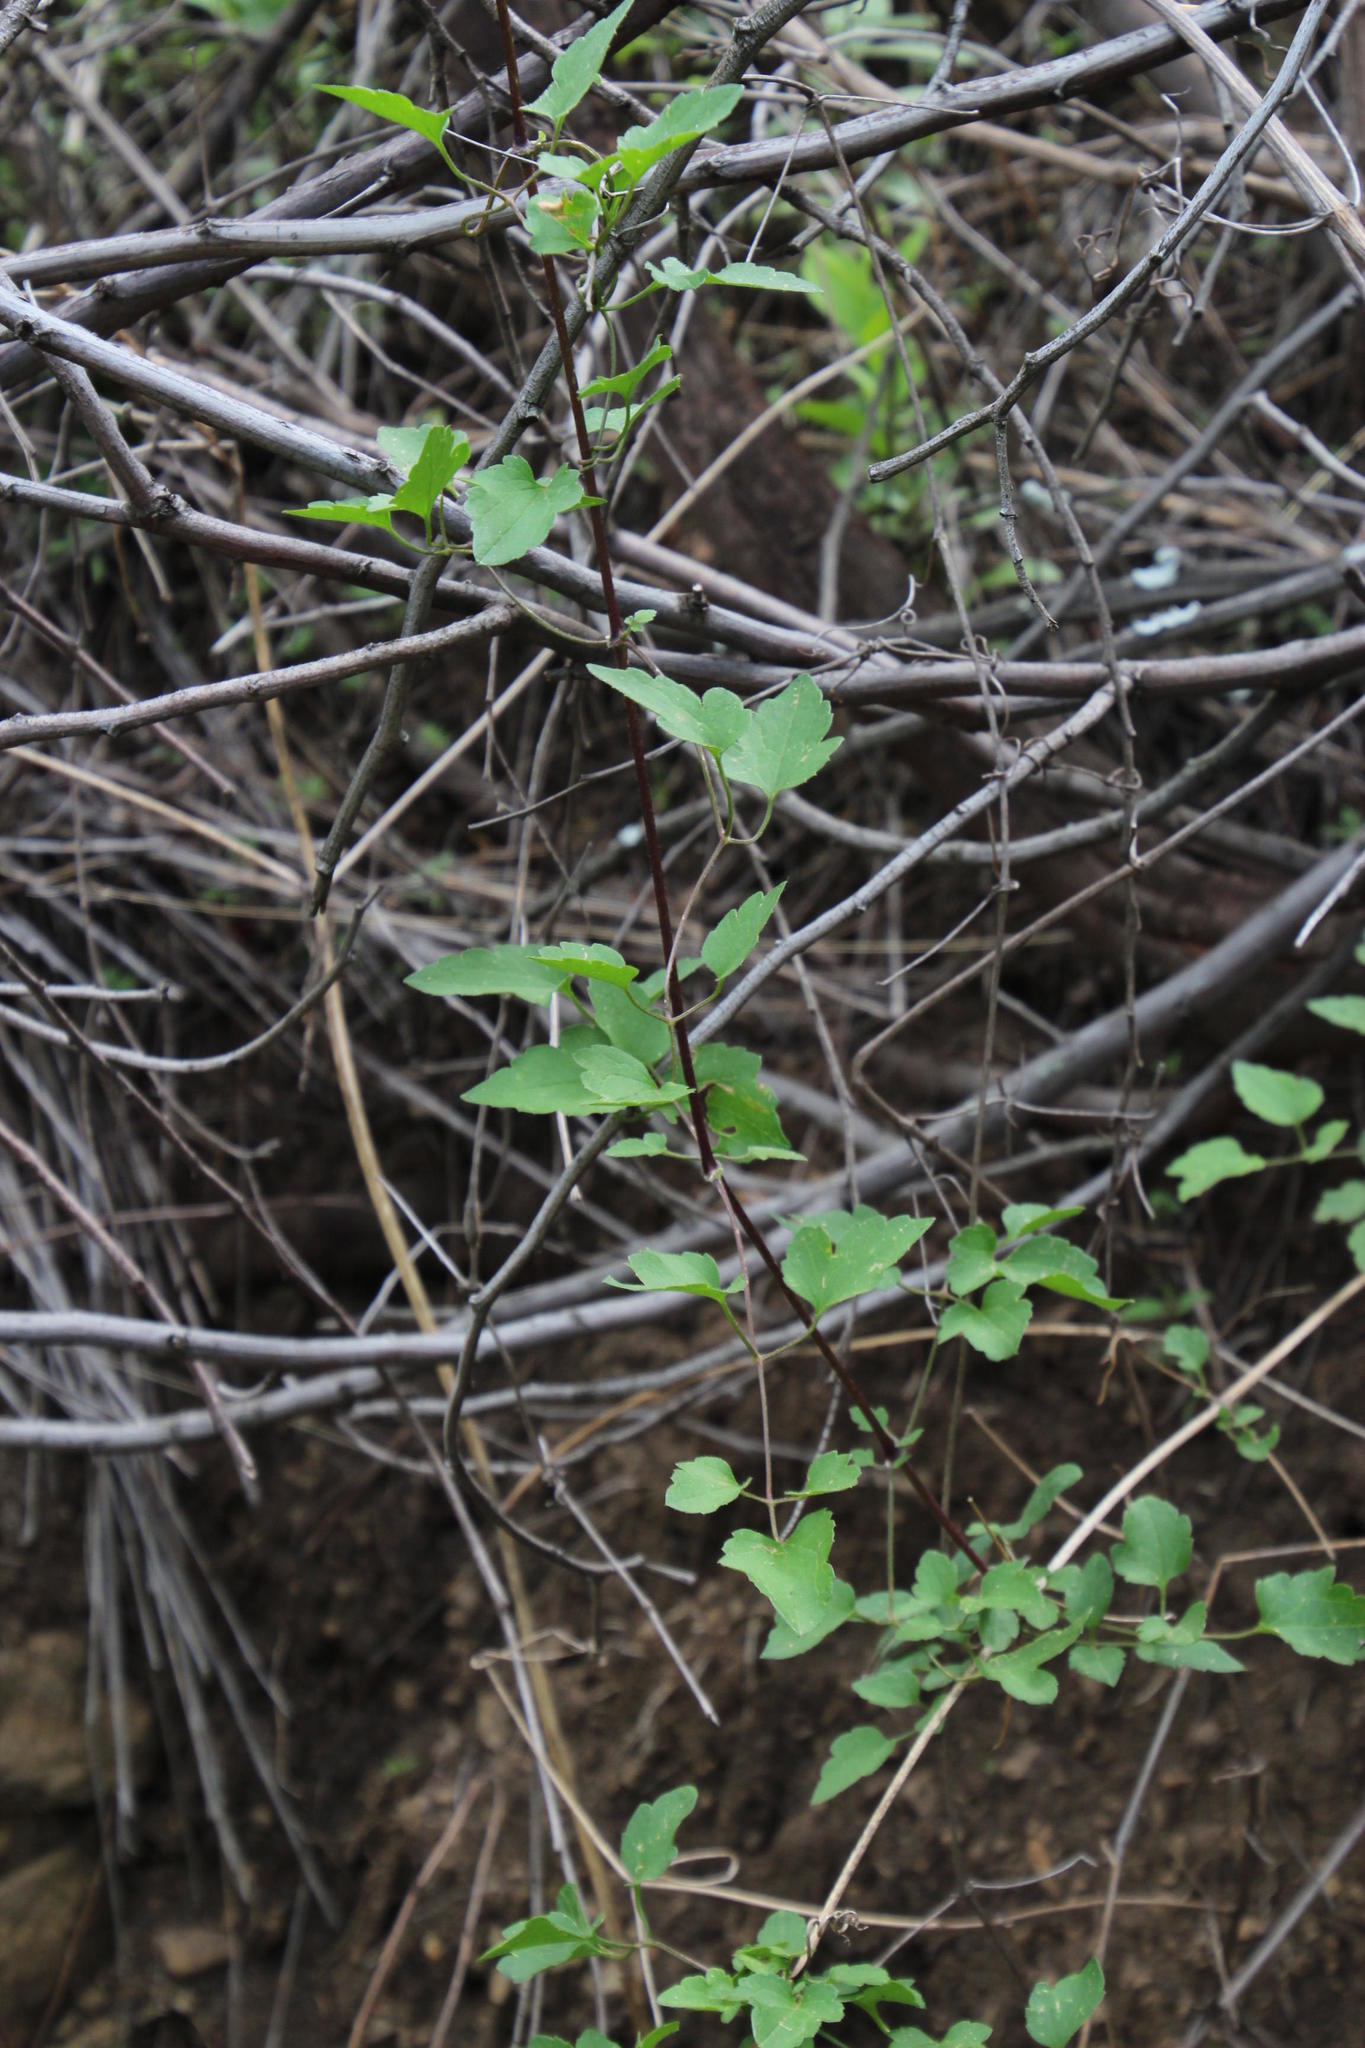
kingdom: Plantae
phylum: Tracheophyta
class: Magnoliopsida
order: Ranunculales
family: Ranunculaceae
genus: Clematis
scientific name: Clematis brachiata
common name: Traveler's-joy
